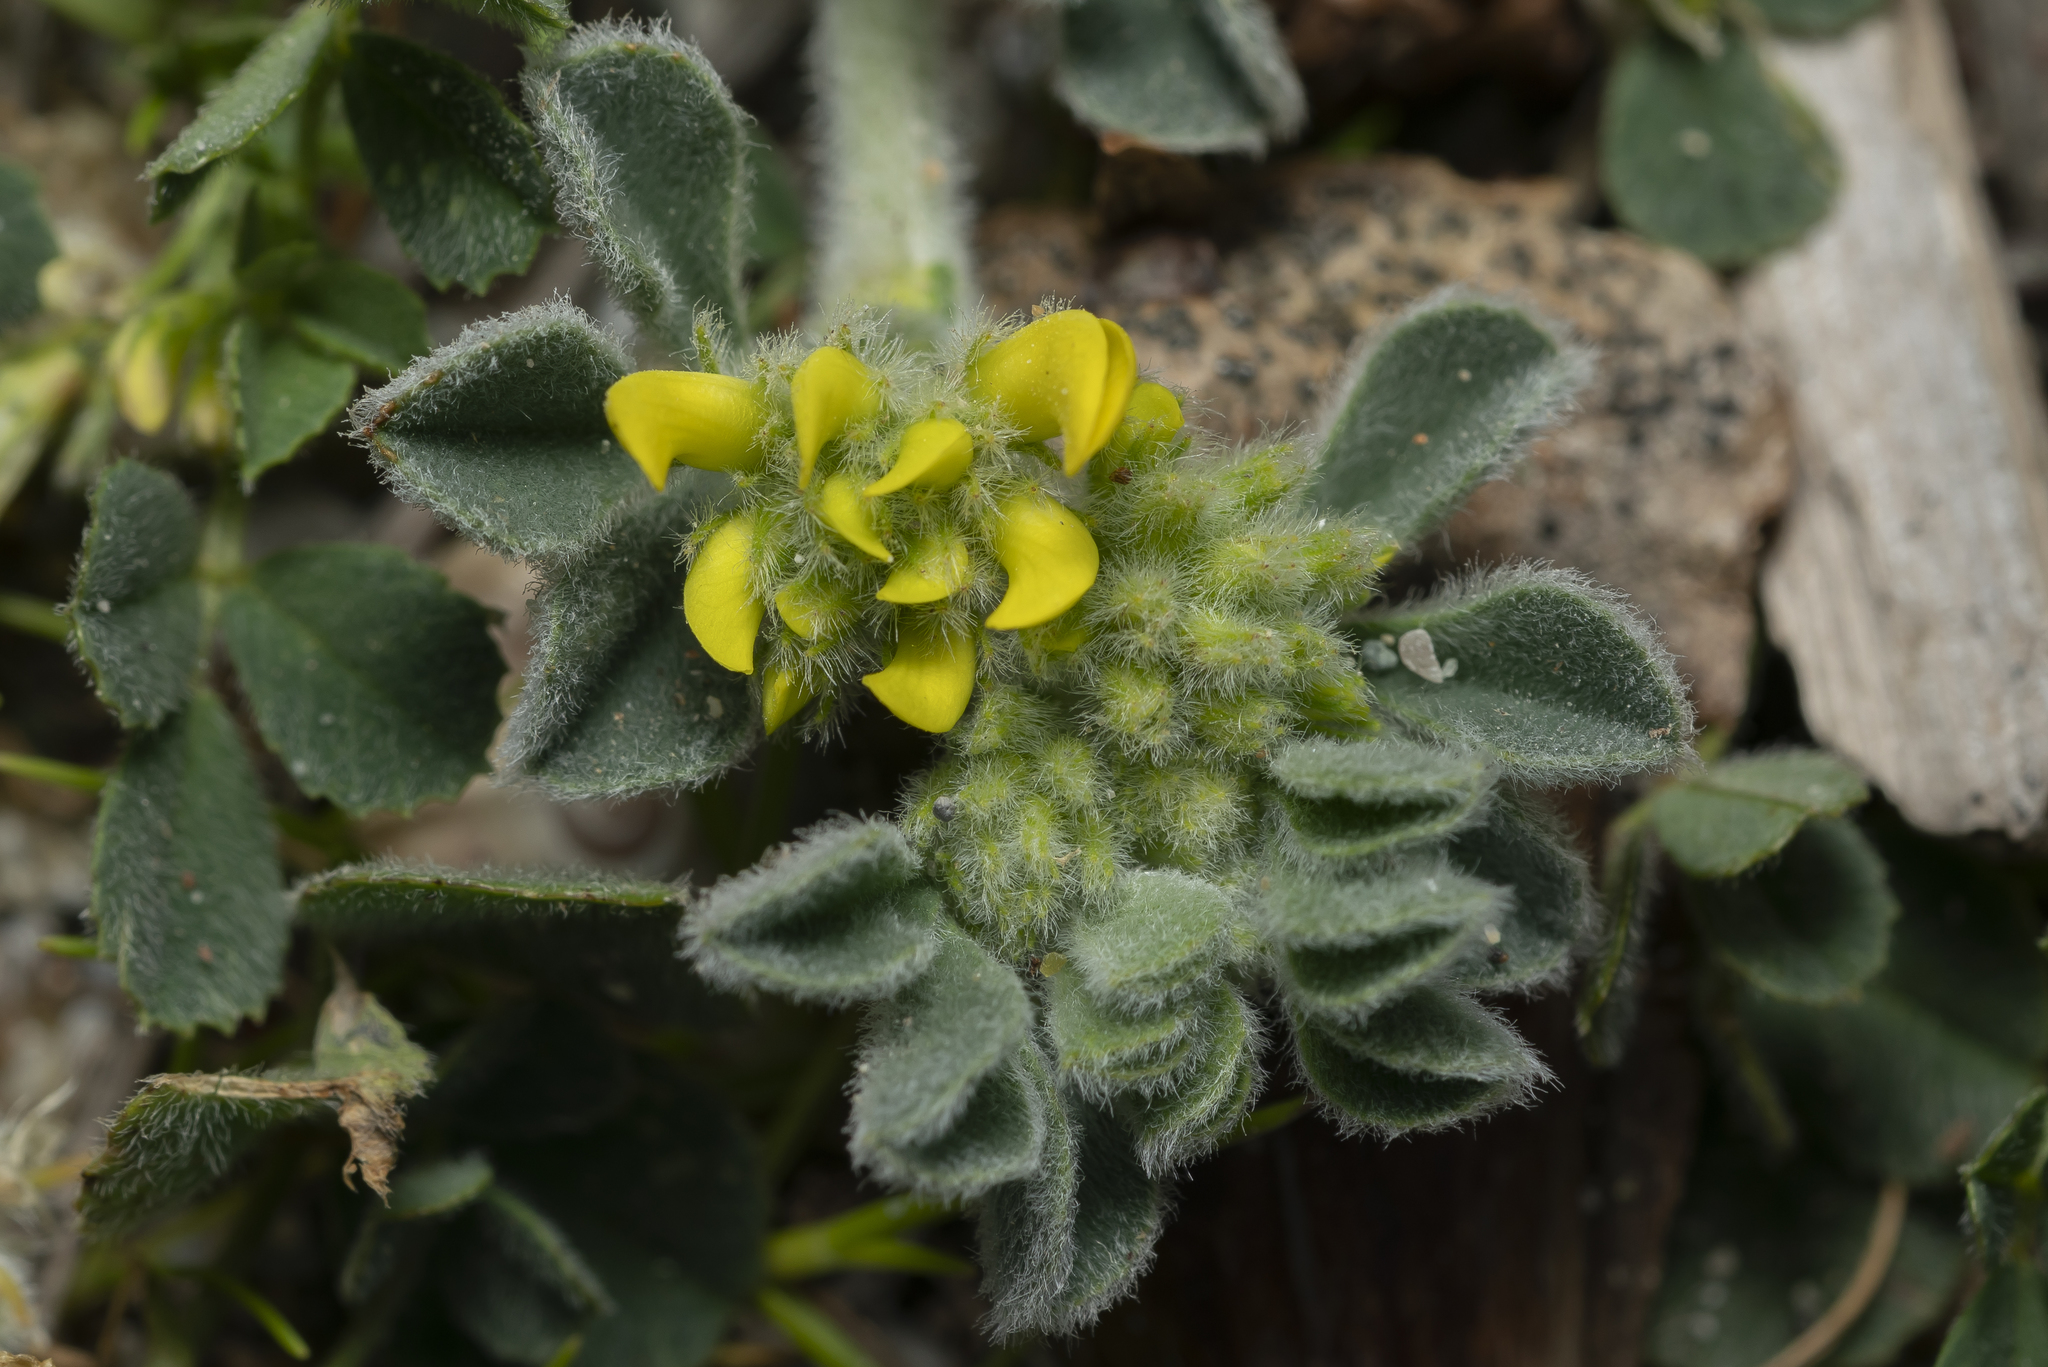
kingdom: Plantae
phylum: Tracheophyta
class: Magnoliopsida
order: Fabales
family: Fabaceae
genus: Medicago
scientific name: Medicago marina
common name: Sea medick
